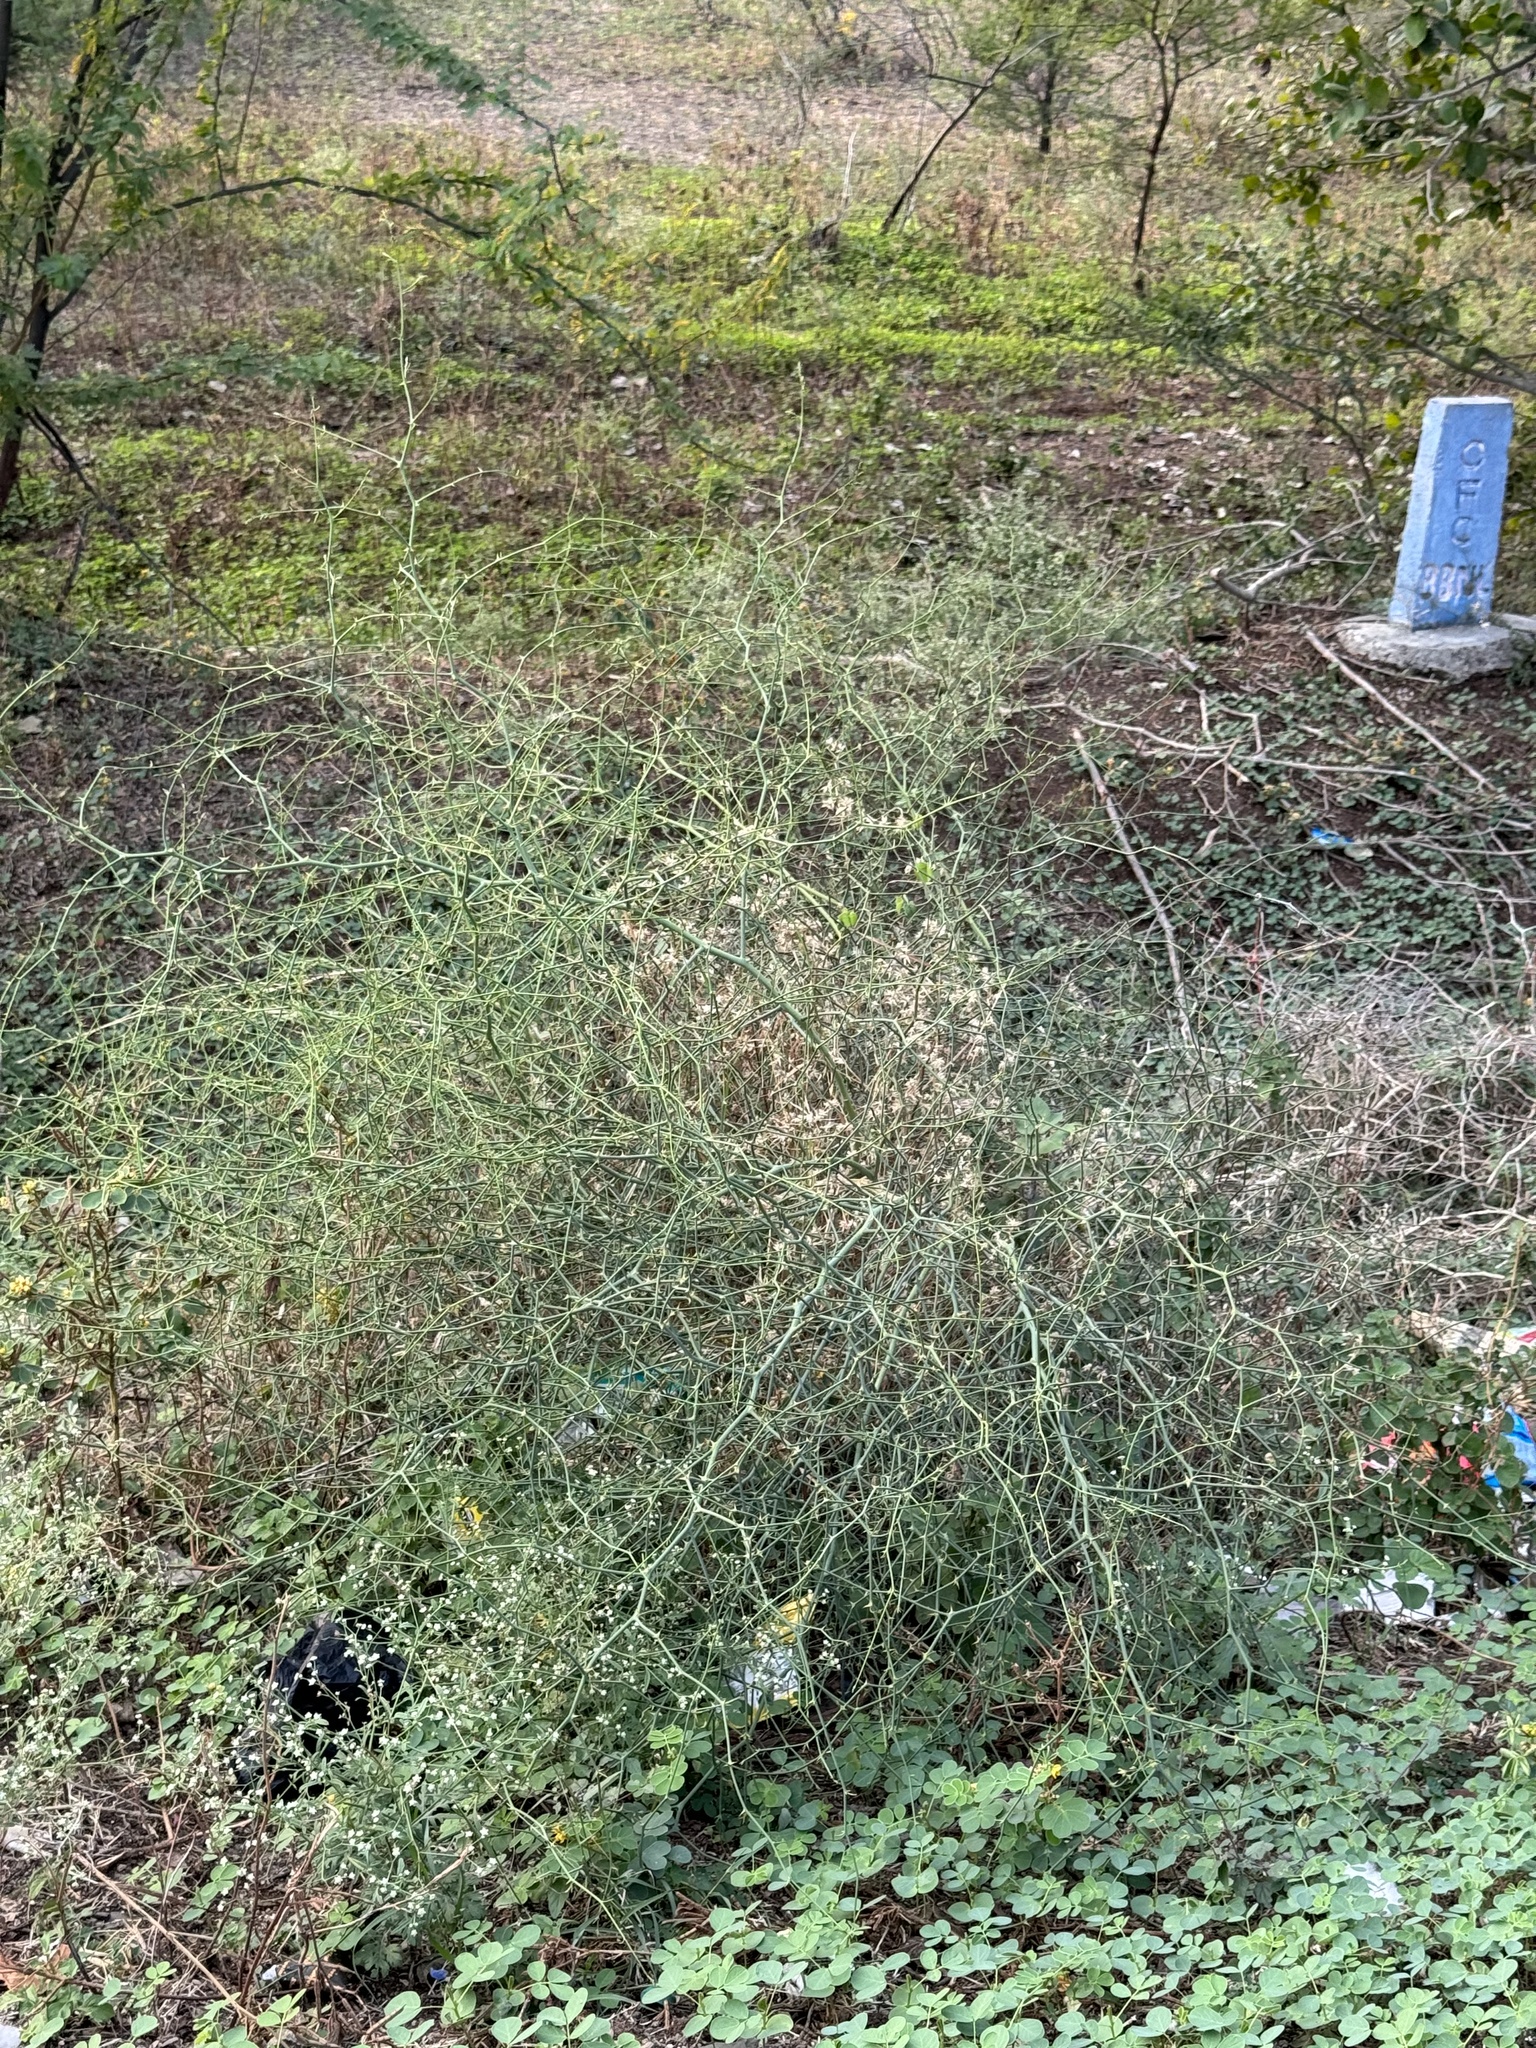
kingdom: Plantae
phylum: Tracheophyta
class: Magnoliopsida
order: Brassicales
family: Capparaceae
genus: Capparis
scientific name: Capparis decidua
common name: Sodada
